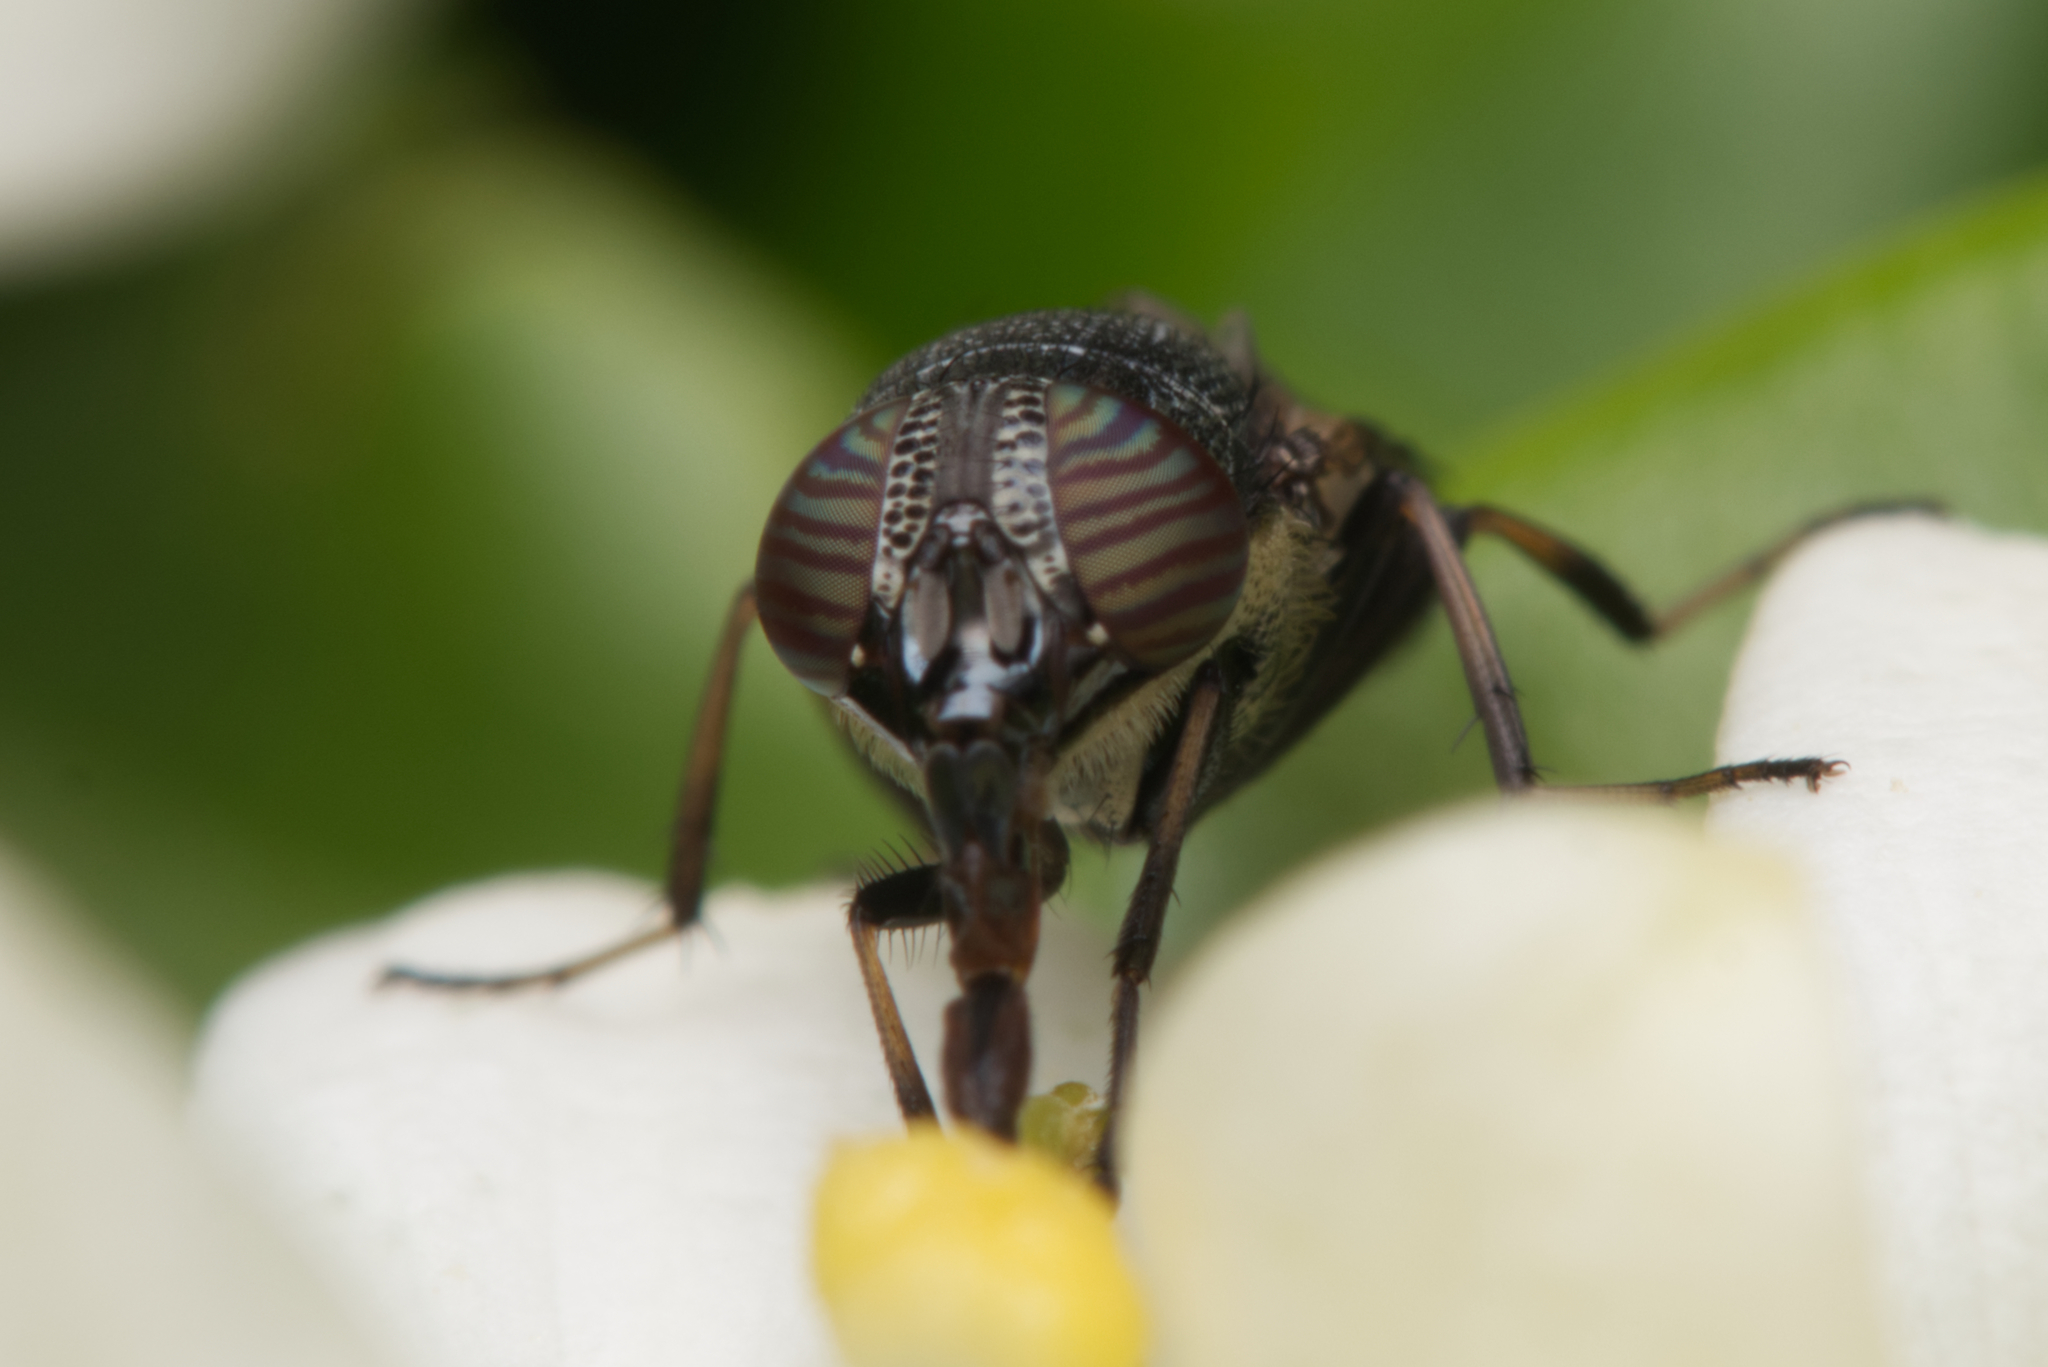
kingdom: Animalia
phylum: Arthropoda
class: Insecta
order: Diptera
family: Calliphoridae
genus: Stomorhina
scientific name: Stomorhina discolor
